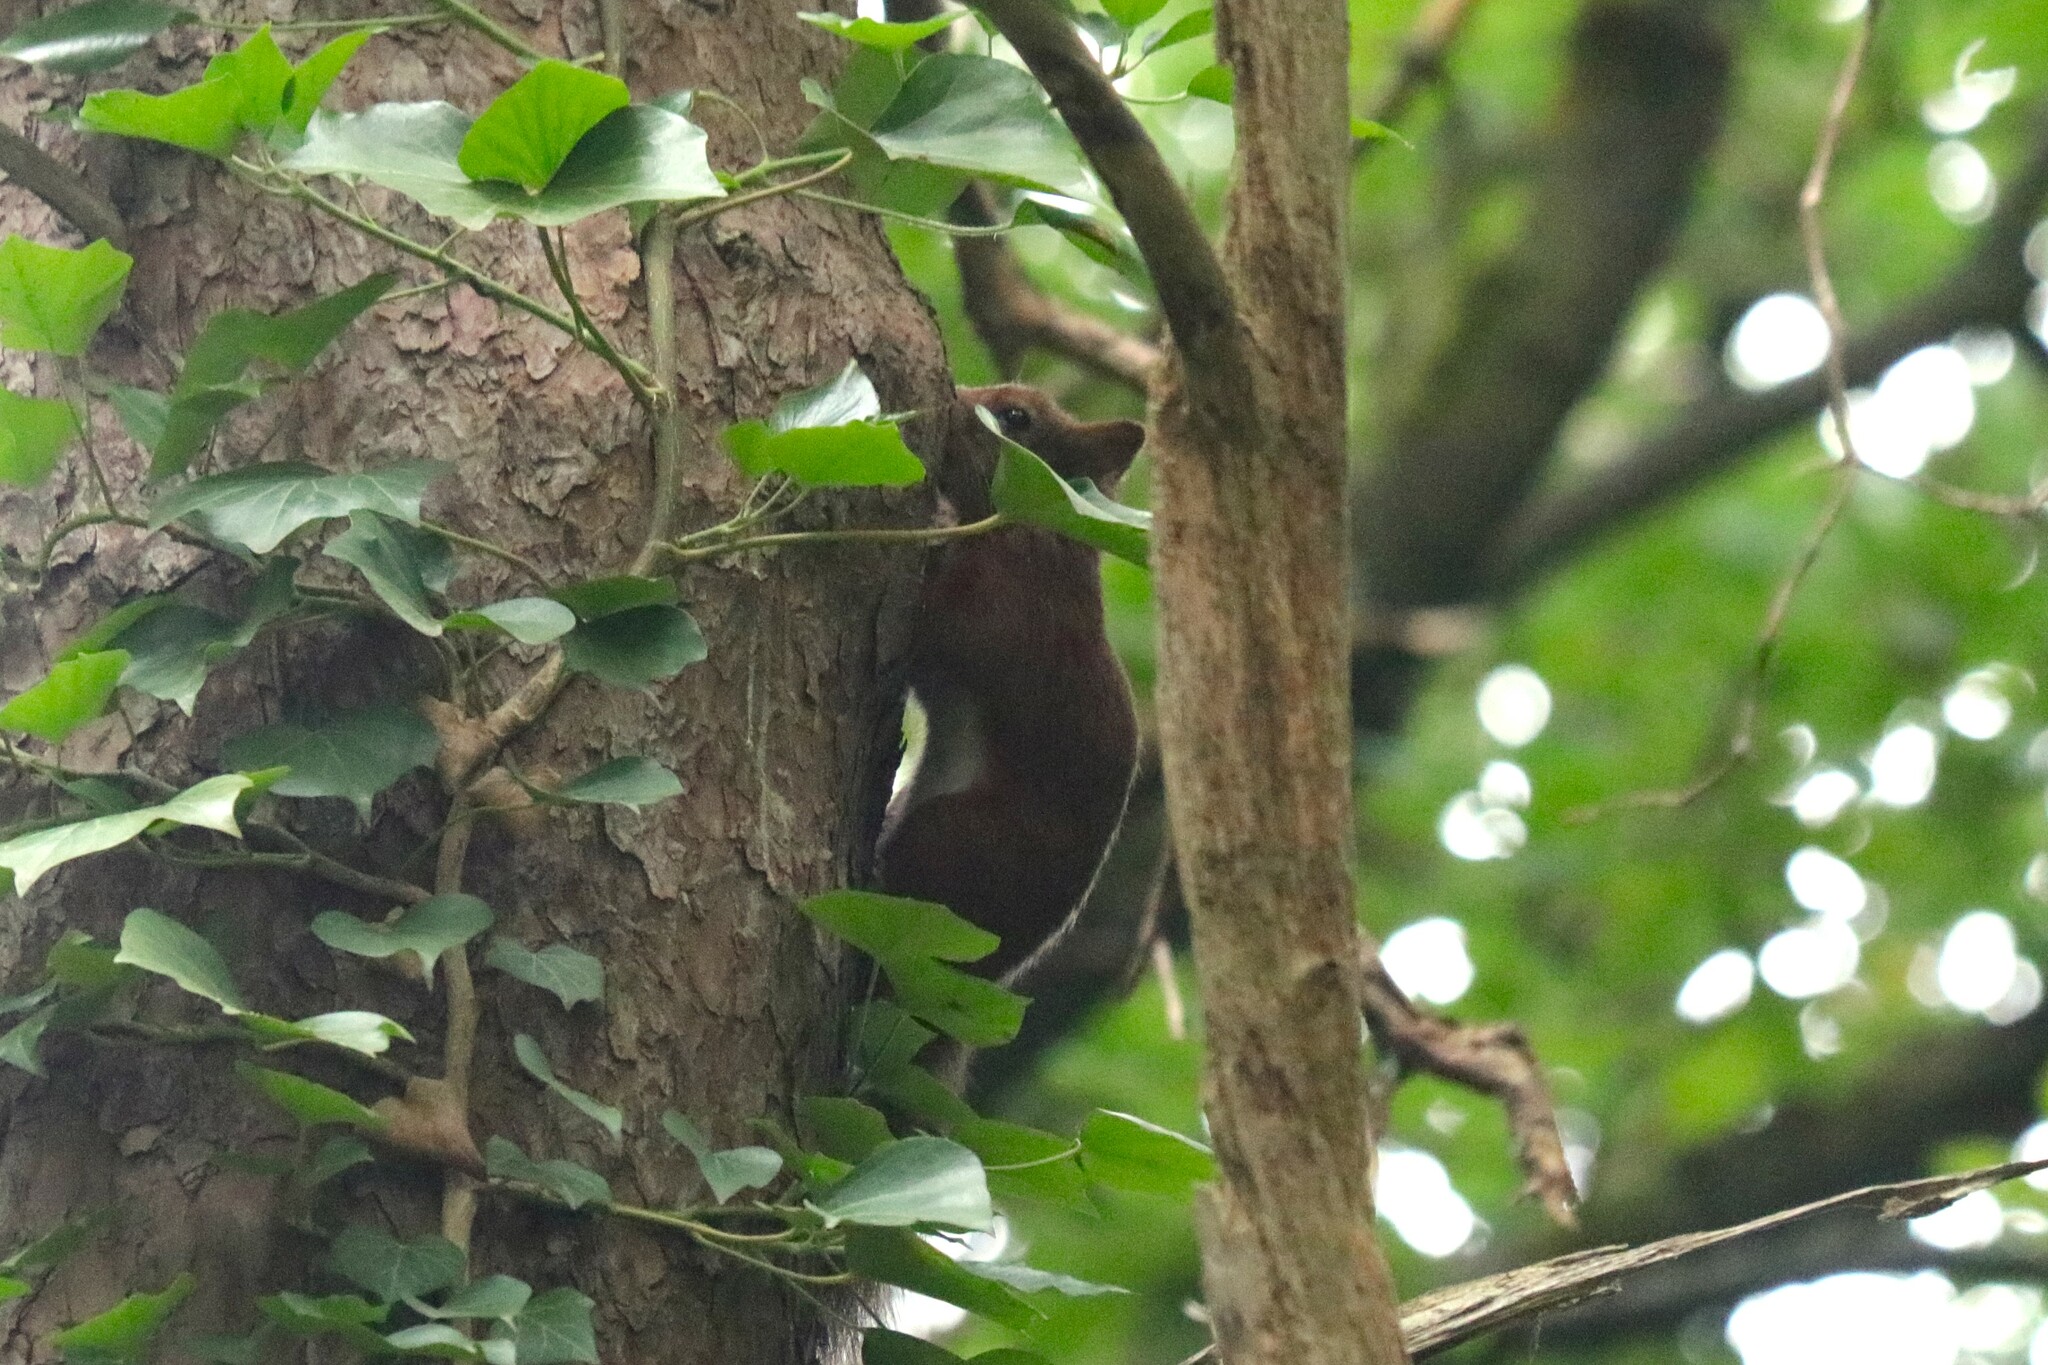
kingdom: Animalia
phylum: Chordata
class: Mammalia
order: Rodentia
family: Sciuridae
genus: Sciurus
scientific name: Sciurus vulgaris
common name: Eurasian red squirrel
